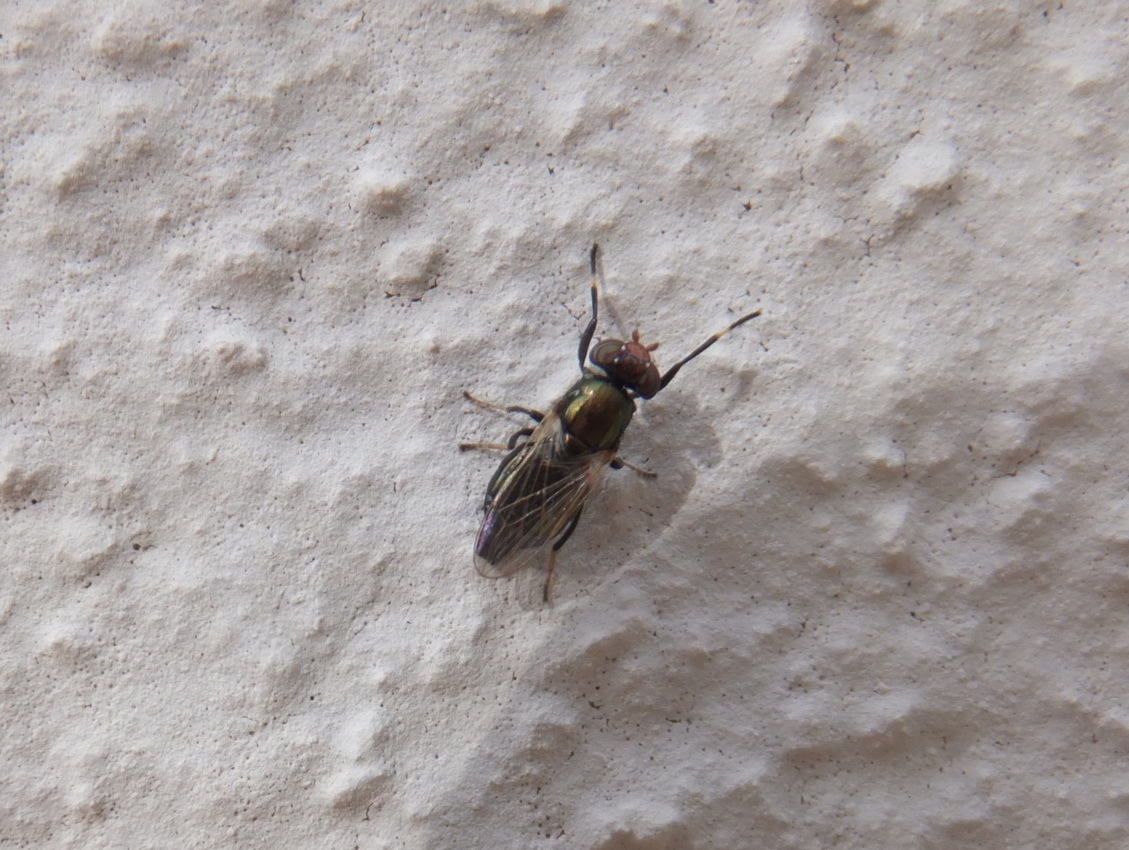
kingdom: Animalia
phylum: Arthropoda
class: Insecta
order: Diptera
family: Ulidiidae
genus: Physiphora
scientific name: Physiphora alceae
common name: Picture-winged fly
